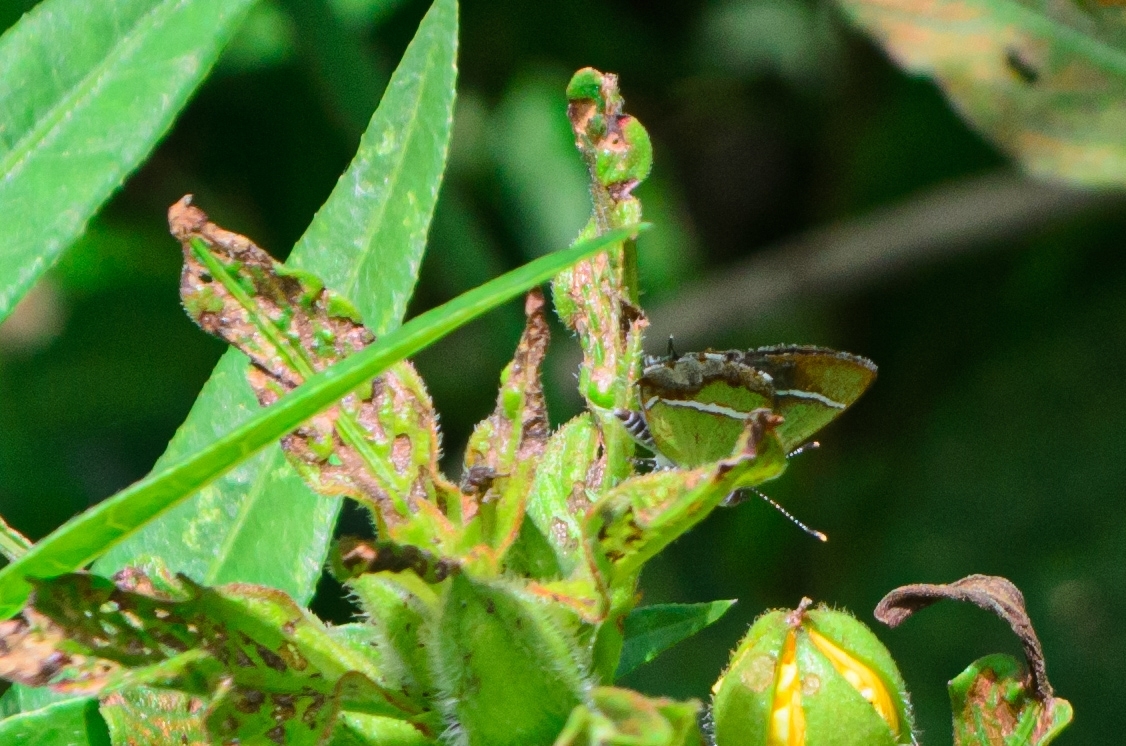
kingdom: Animalia
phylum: Arthropoda
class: Insecta
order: Lepidoptera
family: Lycaenidae
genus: Chlorostrymon
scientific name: Chlorostrymon simaethis
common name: Silver-banded hairstreak
